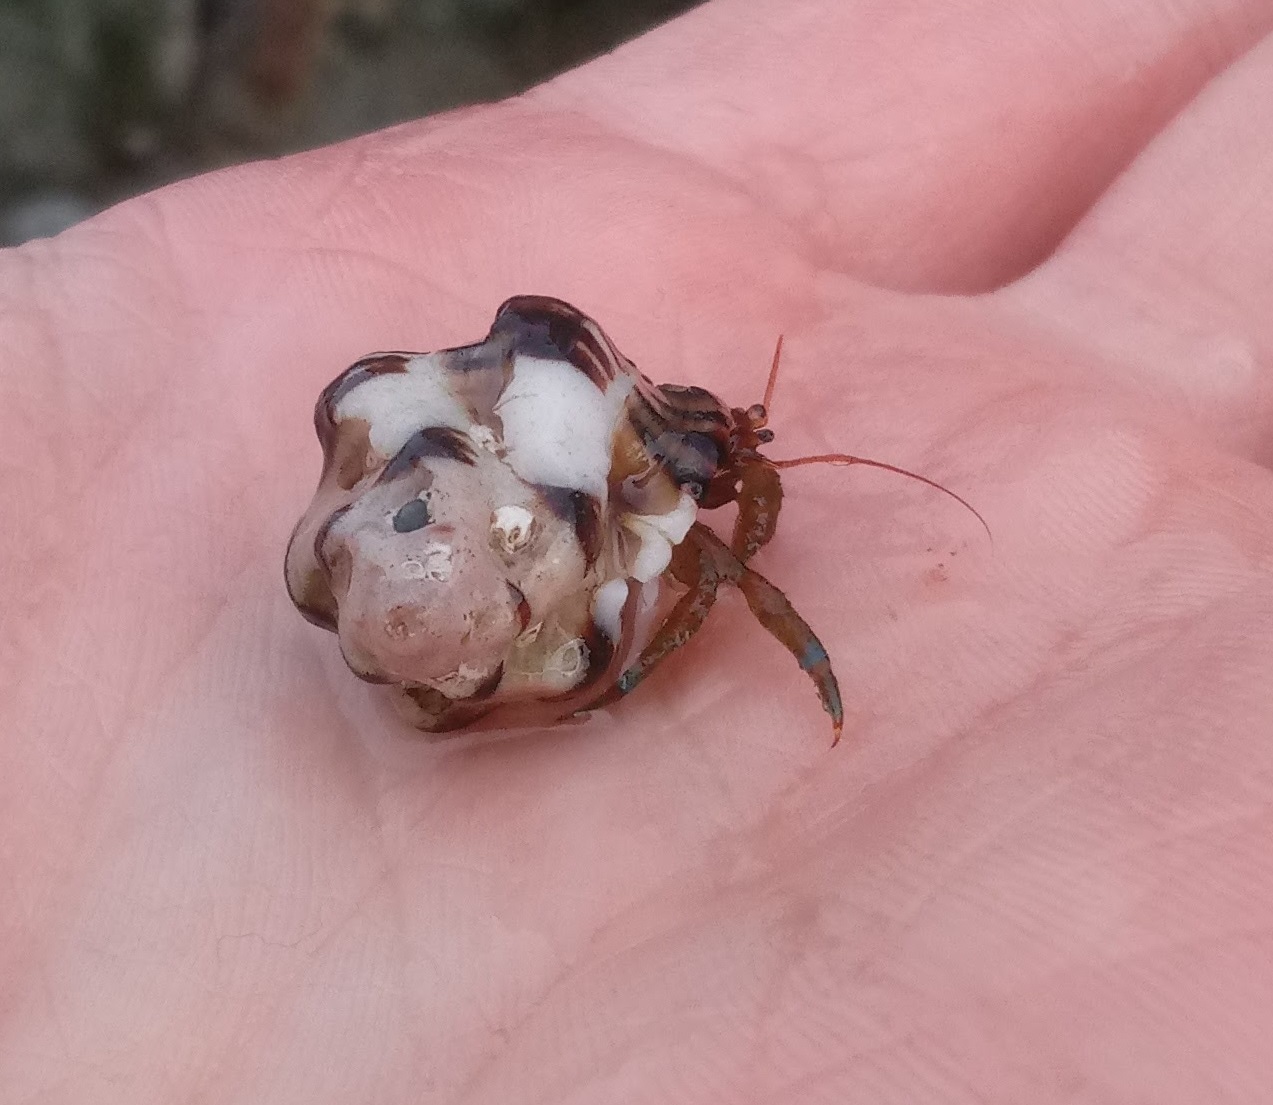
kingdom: Animalia
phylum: Mollusca
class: Gastropoda
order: Neogastropoda
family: Muricidae
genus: Maxwellia
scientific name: Maxwellia gemma
